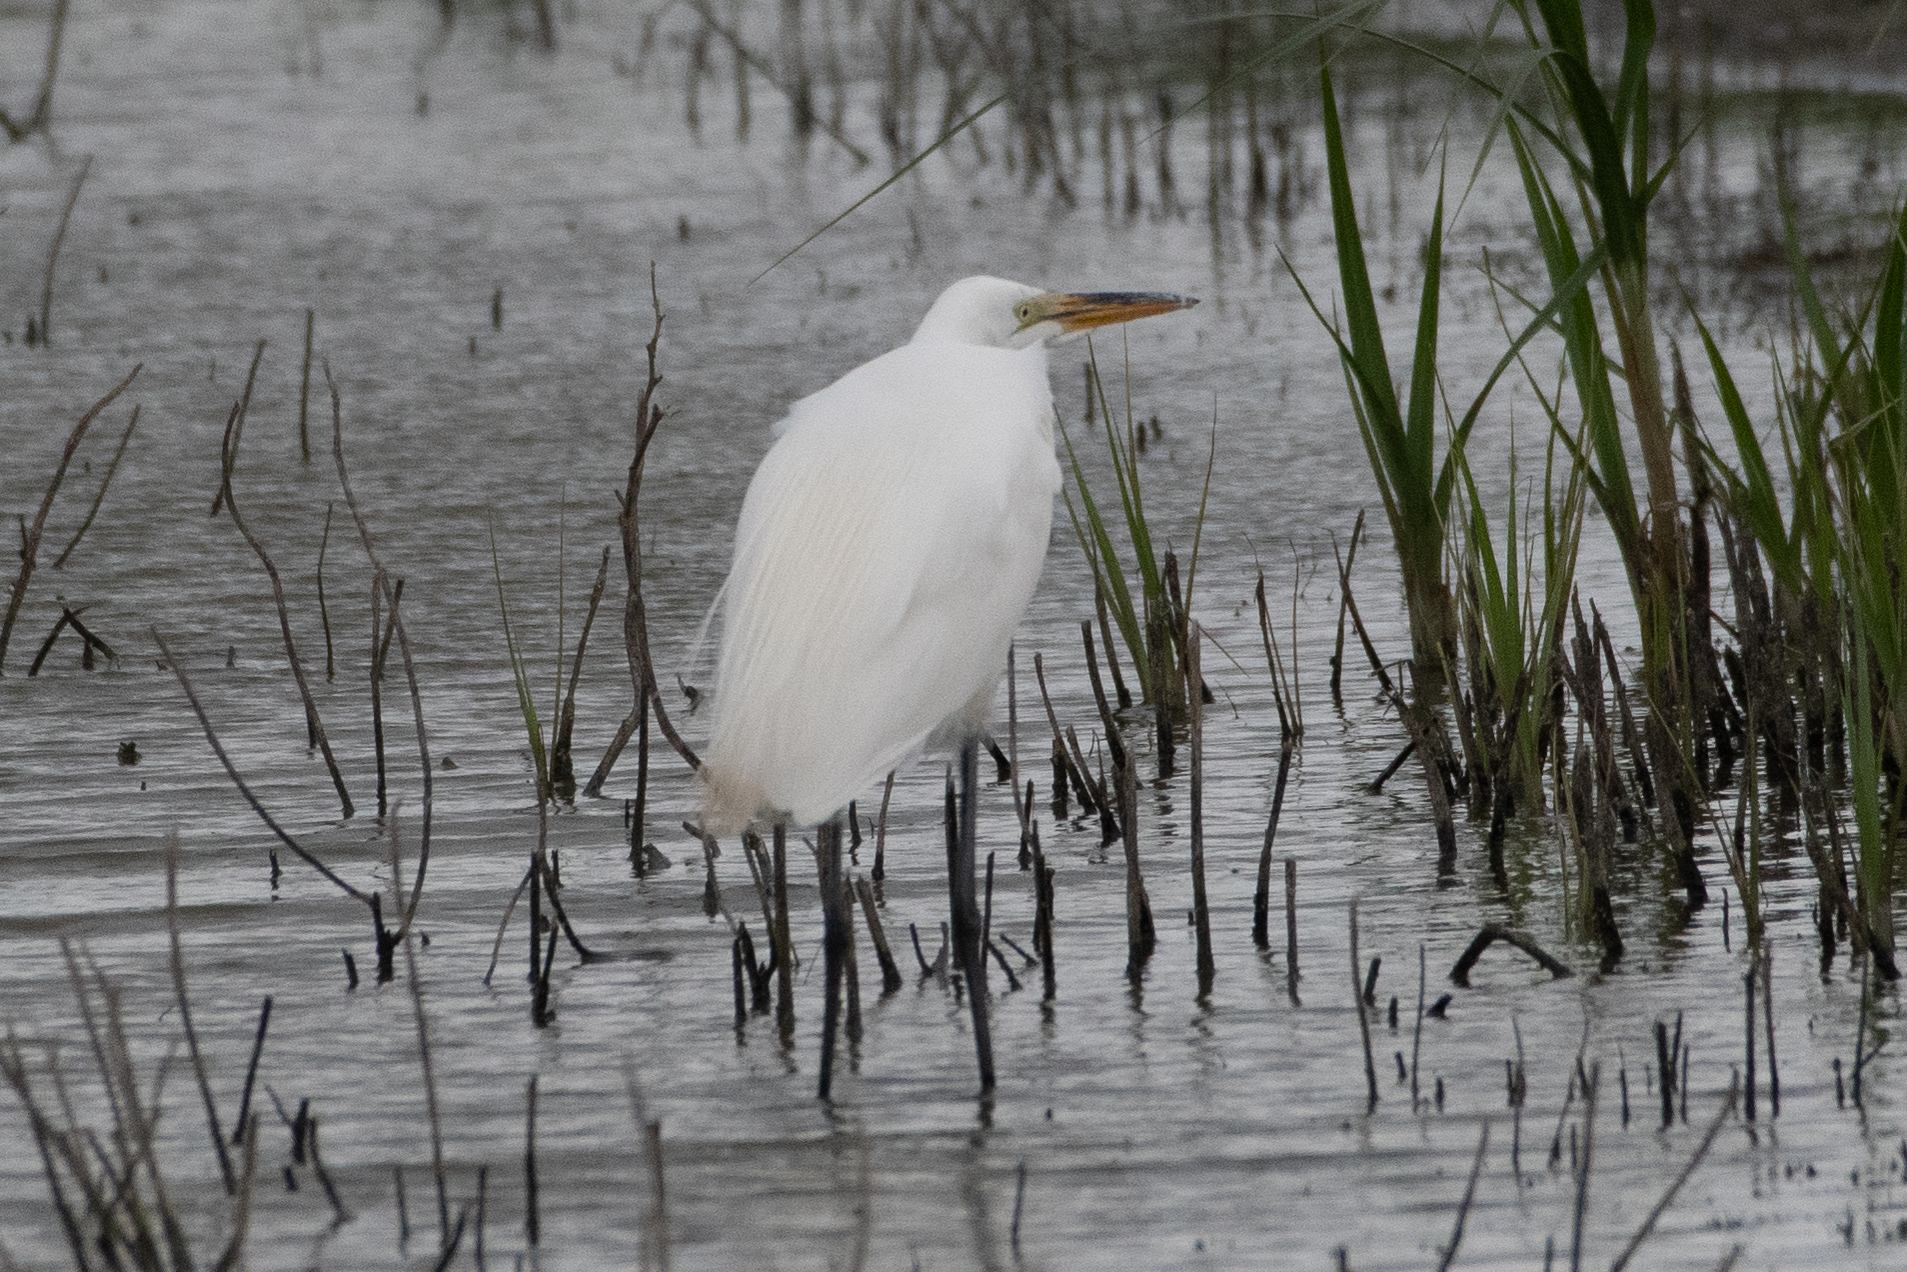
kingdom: Animalia
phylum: Chordata
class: Aves
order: Pelecaniformes
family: Ardeidae
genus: Ardea
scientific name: Ardea alba
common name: Great egret
